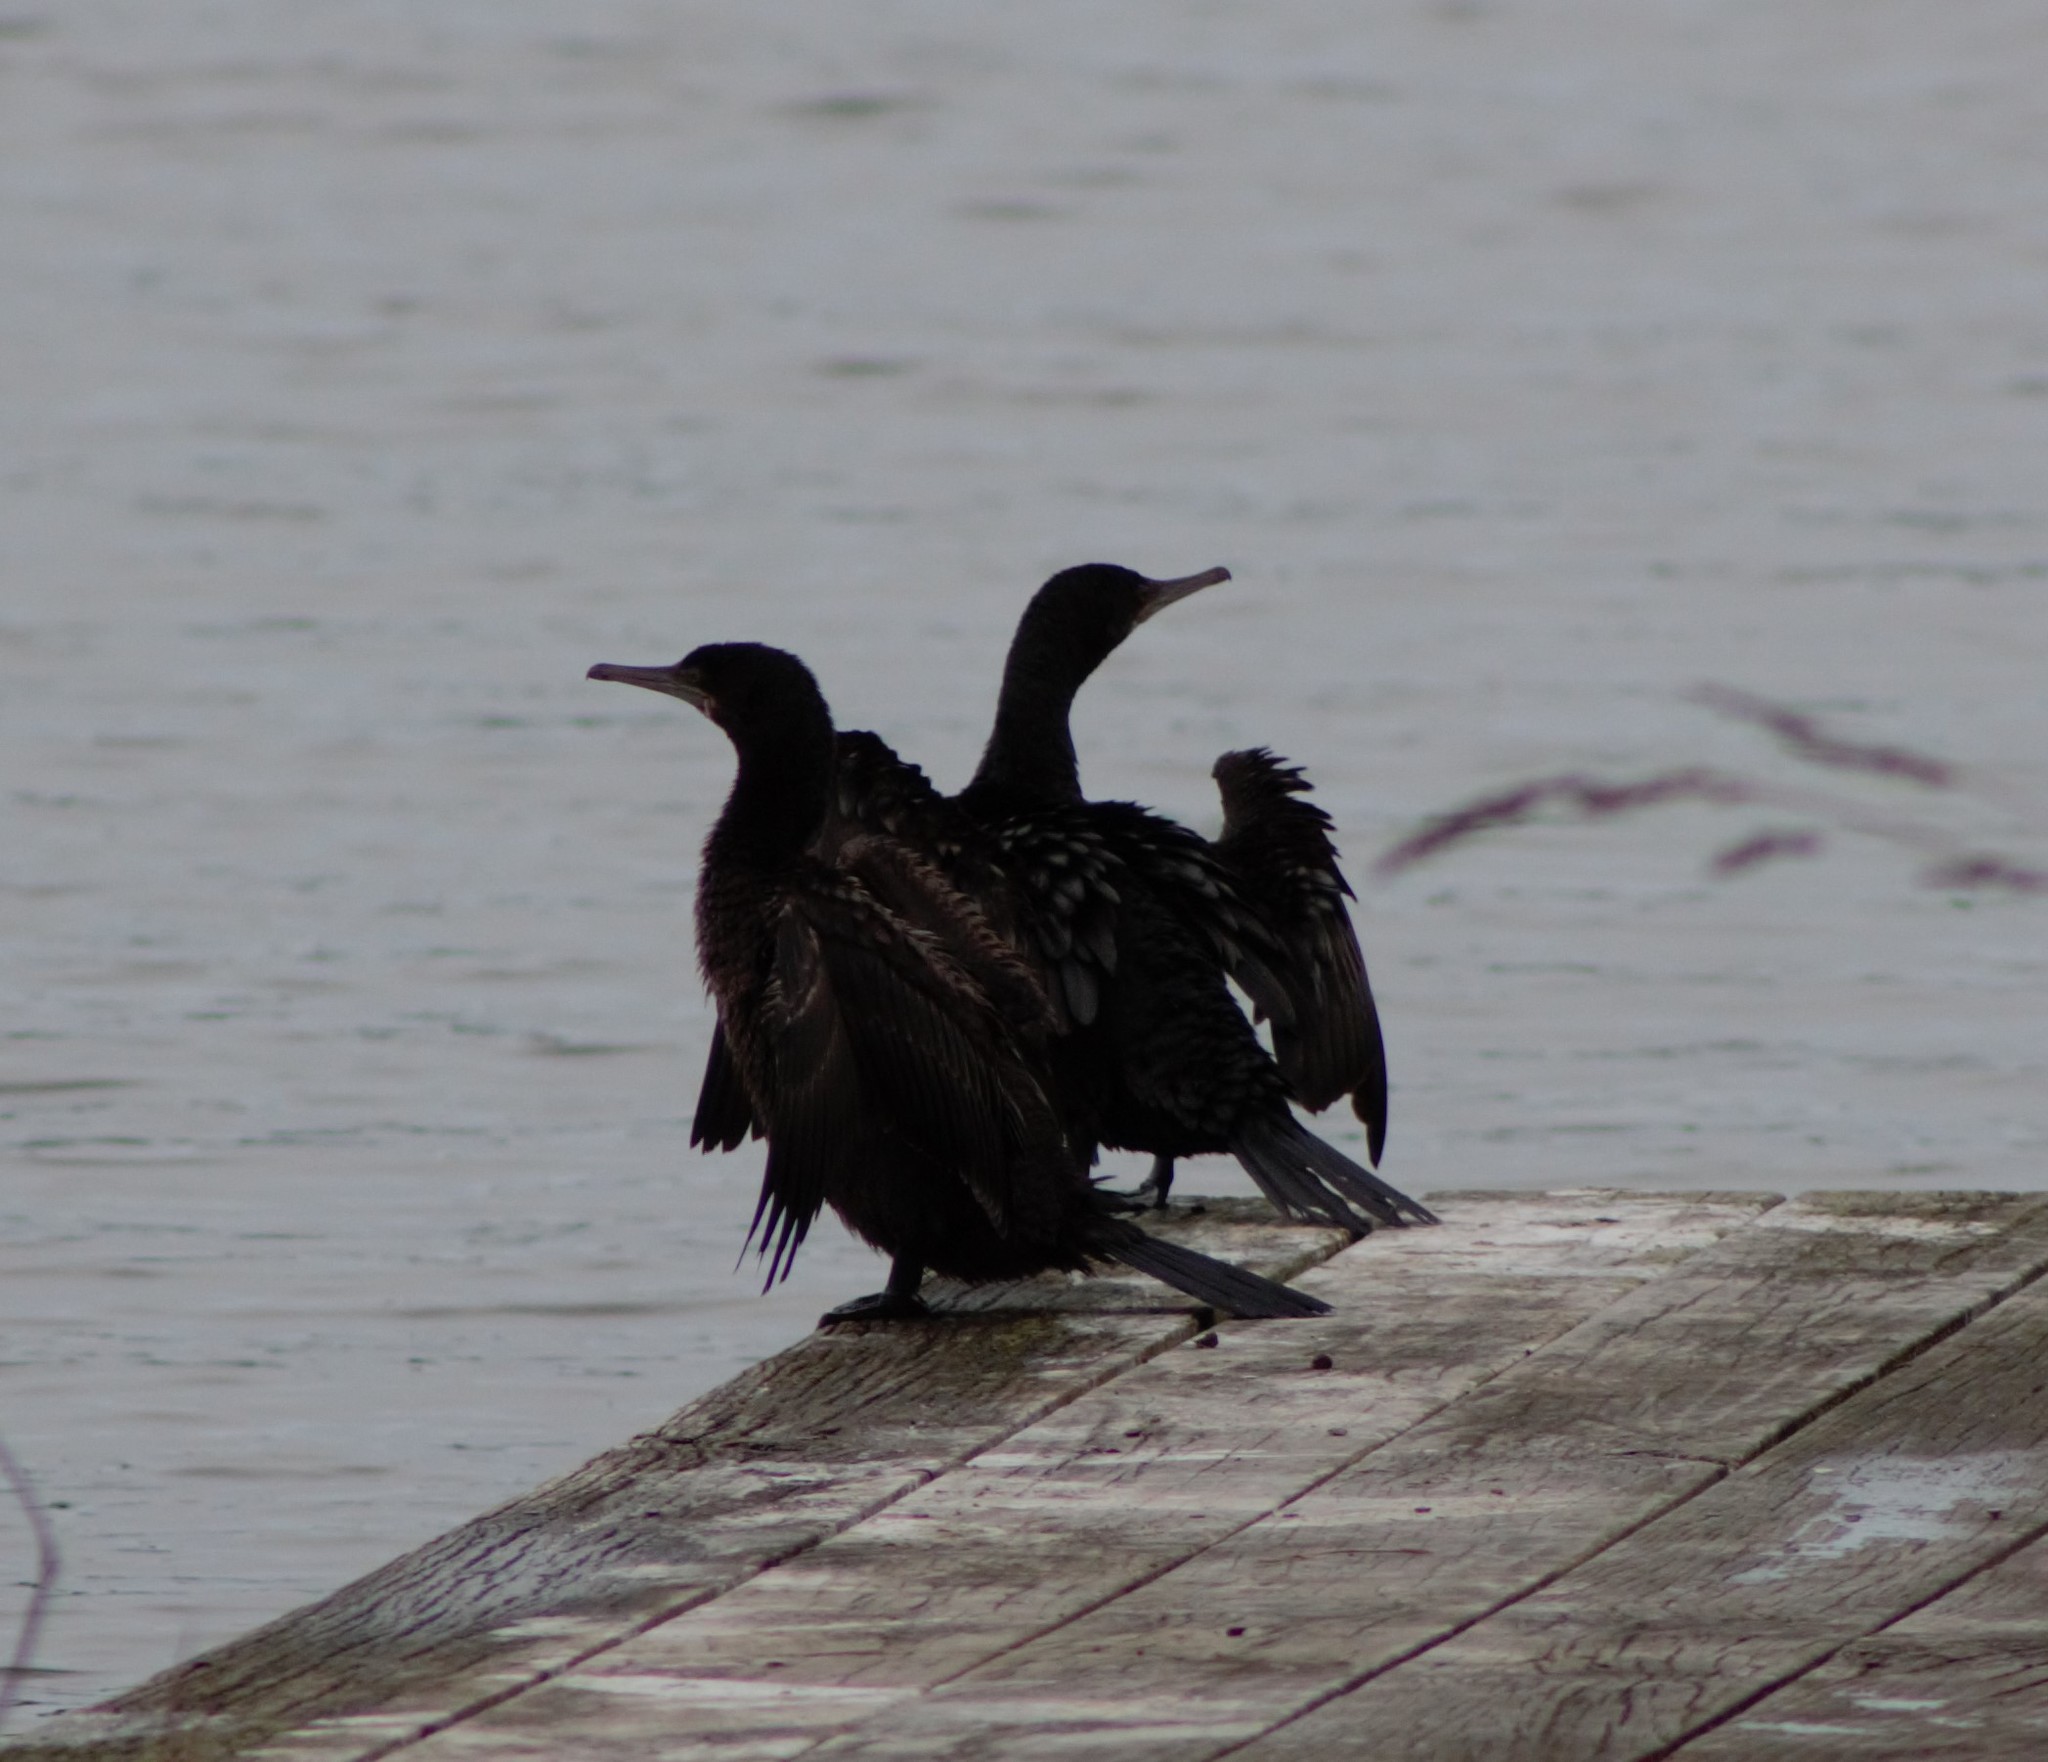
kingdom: Animalia
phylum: Chordata
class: Aves
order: Suliformes
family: Phalacrocoracidae
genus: Phalacrocorax
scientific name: Phalacrocorax sulcirostris
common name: Little black cormorant
